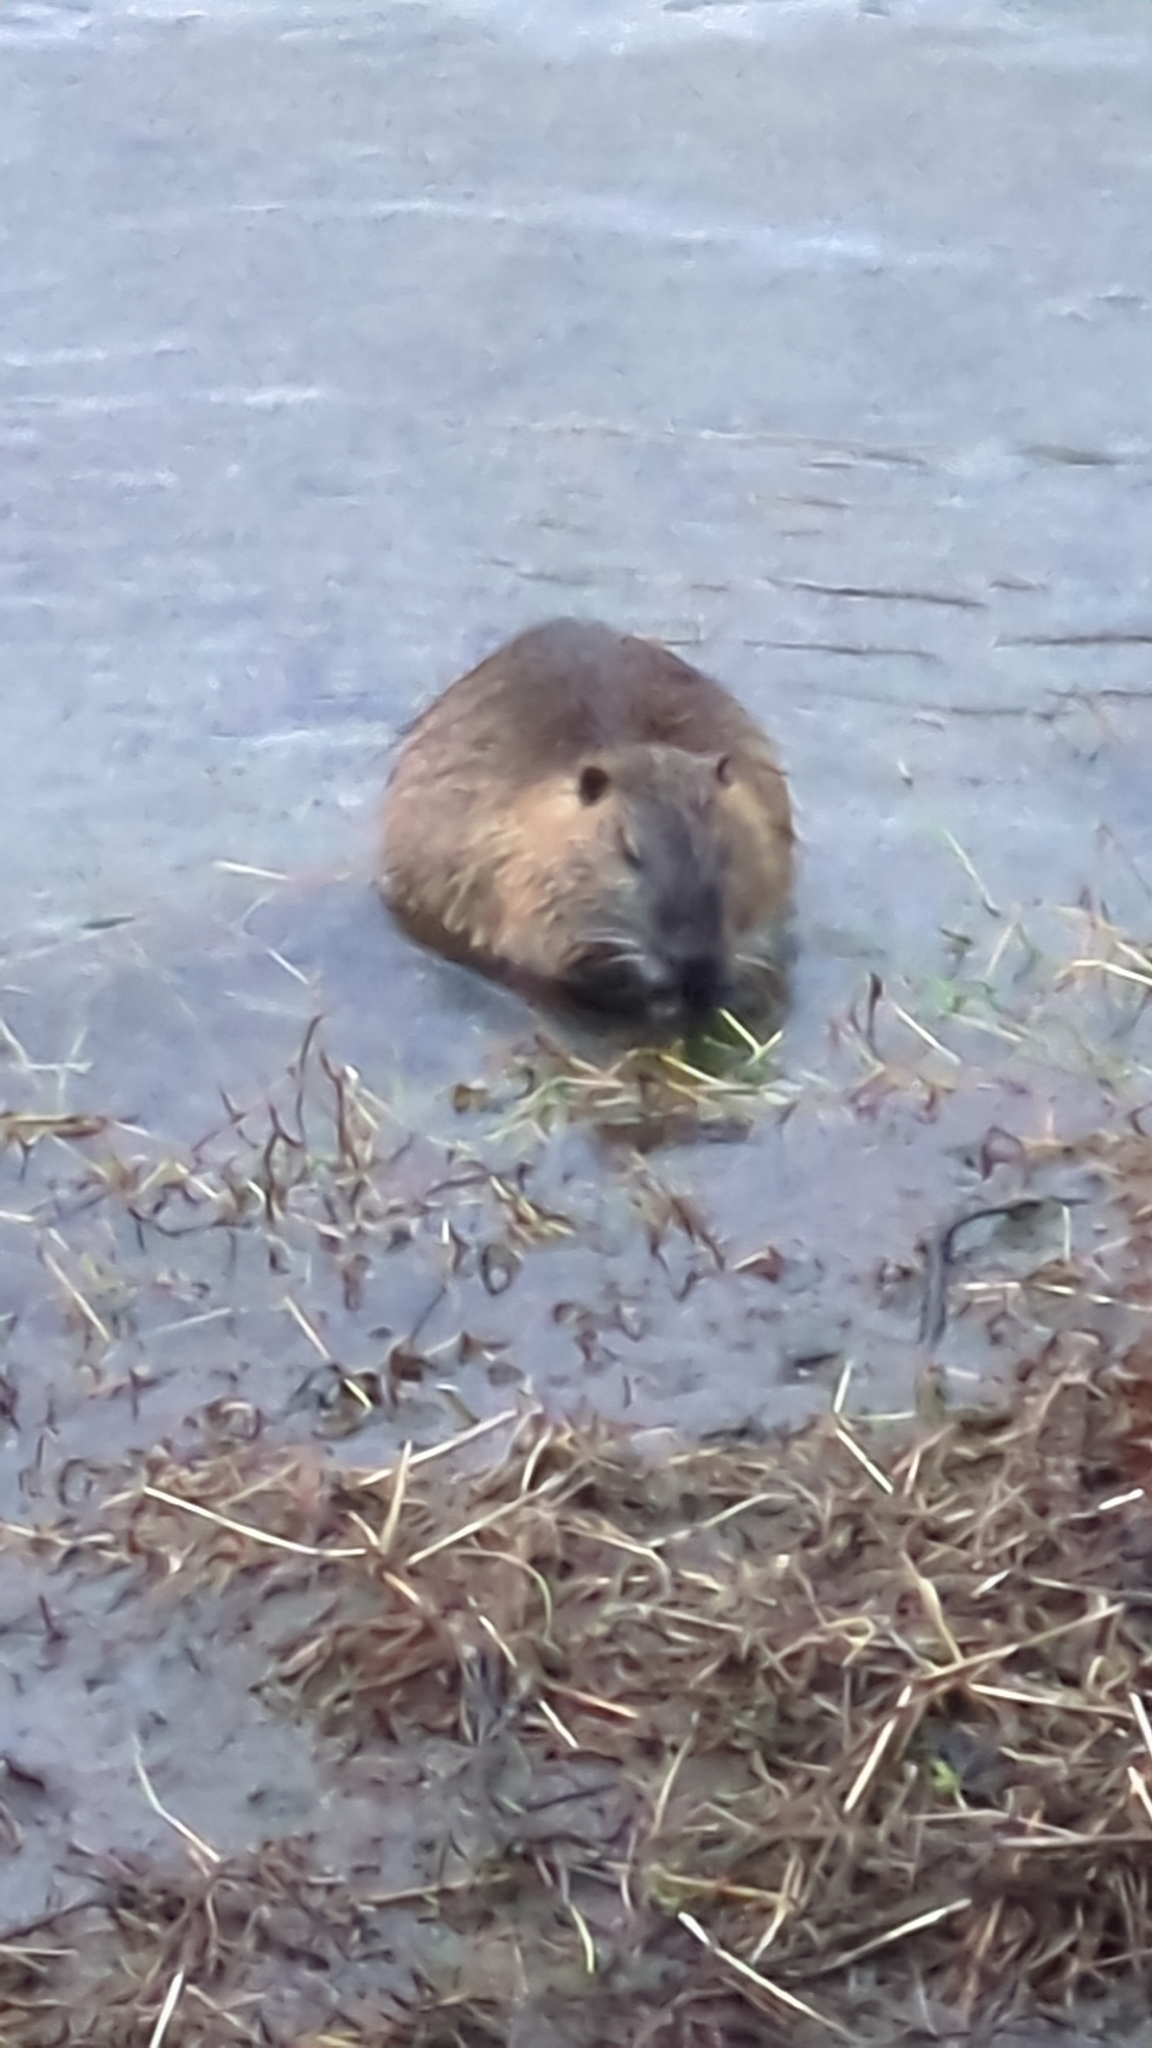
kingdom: Animalia
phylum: Chordata
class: Mammalia
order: Rodentia
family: Myocastoridae
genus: Myocastor
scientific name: Myocastor coypus
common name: Coypu
